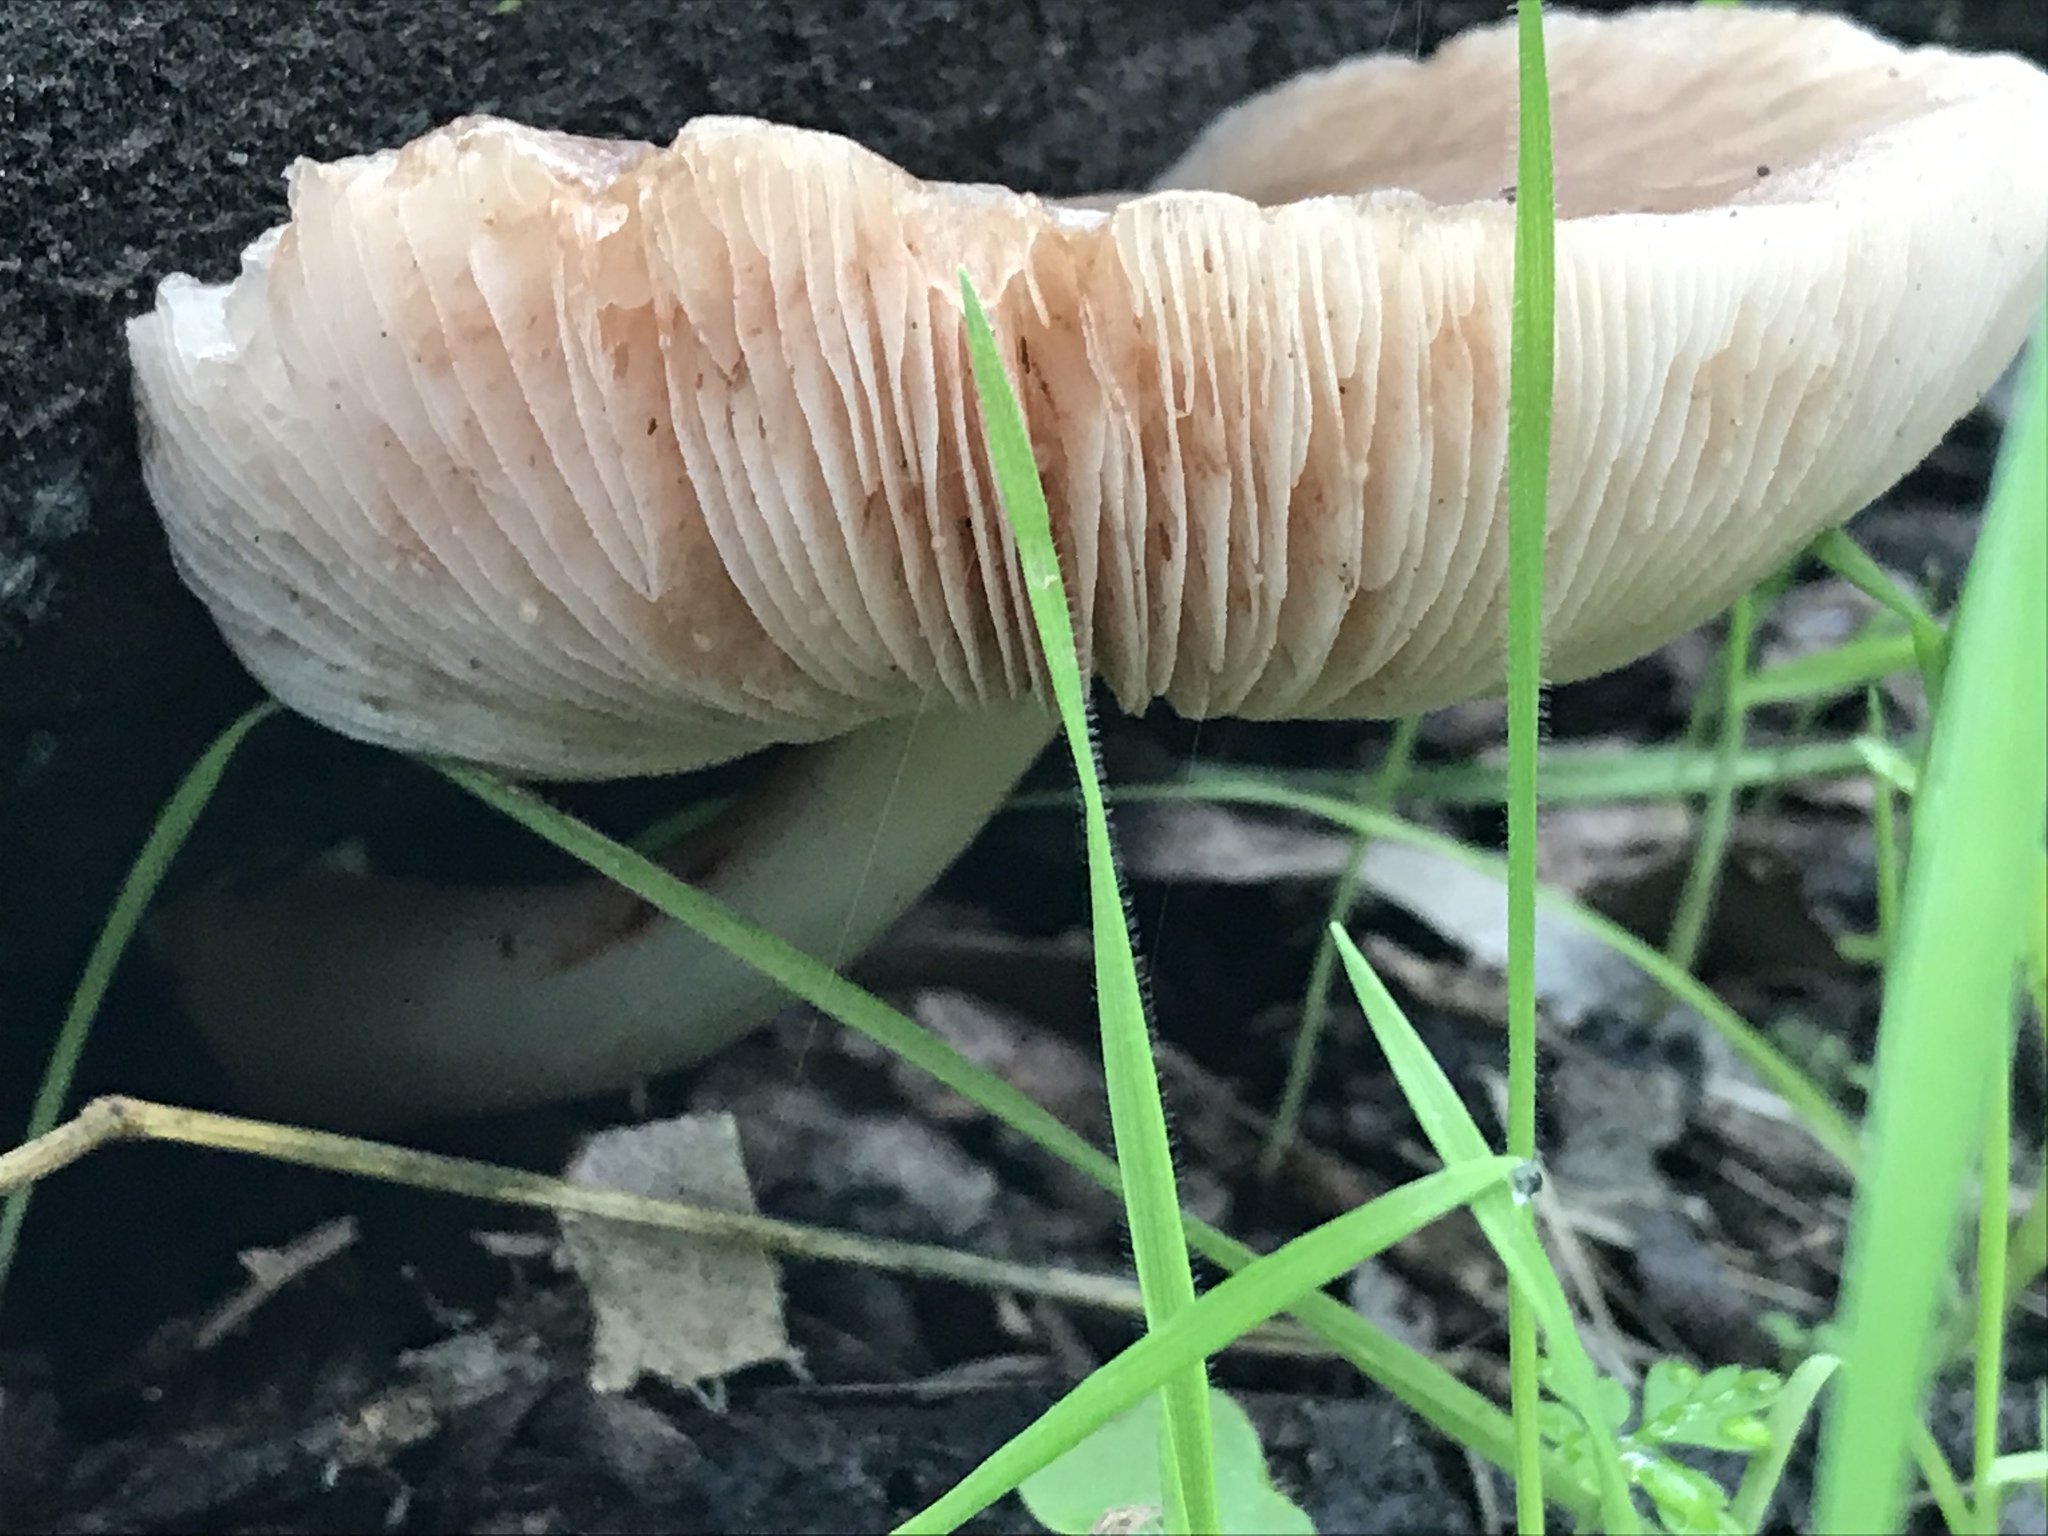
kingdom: Fungi
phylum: Basidiomycota
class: Agaricomycetes
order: Agaricales
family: Pluteaceae
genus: Pluteus
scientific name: Pluteus cervinus
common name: Deer shield
